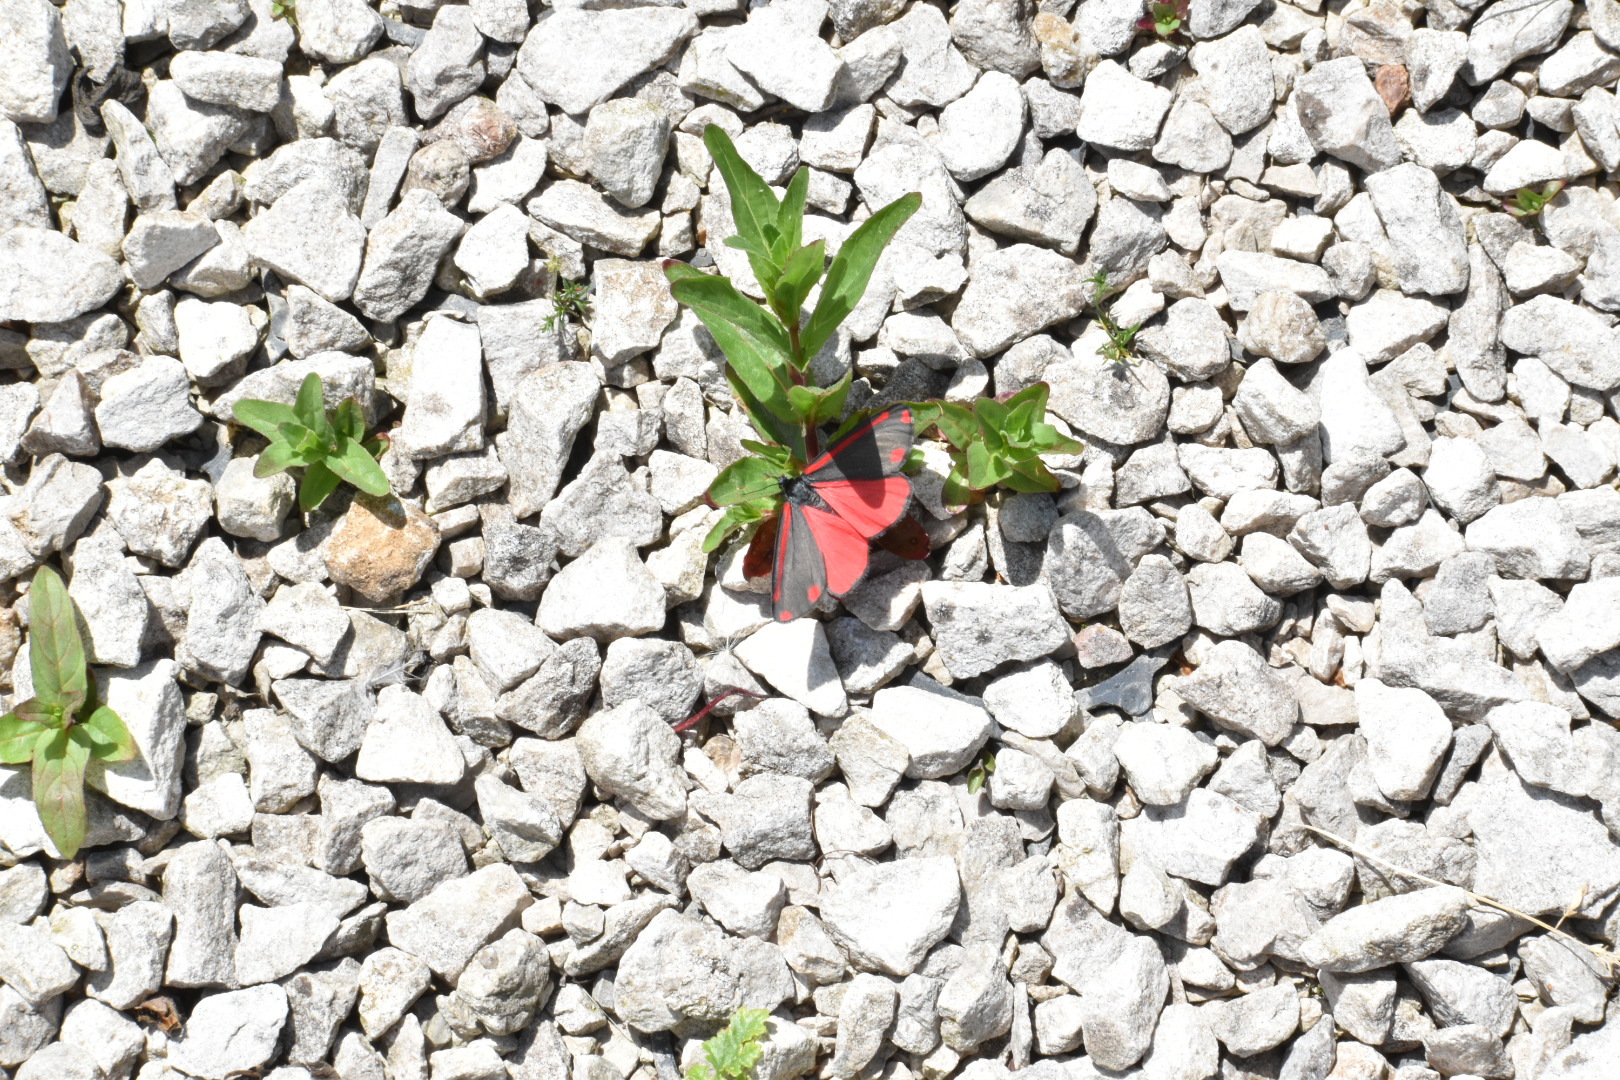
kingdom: Animalia
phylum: Arthropoda
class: Insecta
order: Lepidoptera
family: Erebidae
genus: Tyria
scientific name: Tyria jacobaeae
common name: Cinnabar
